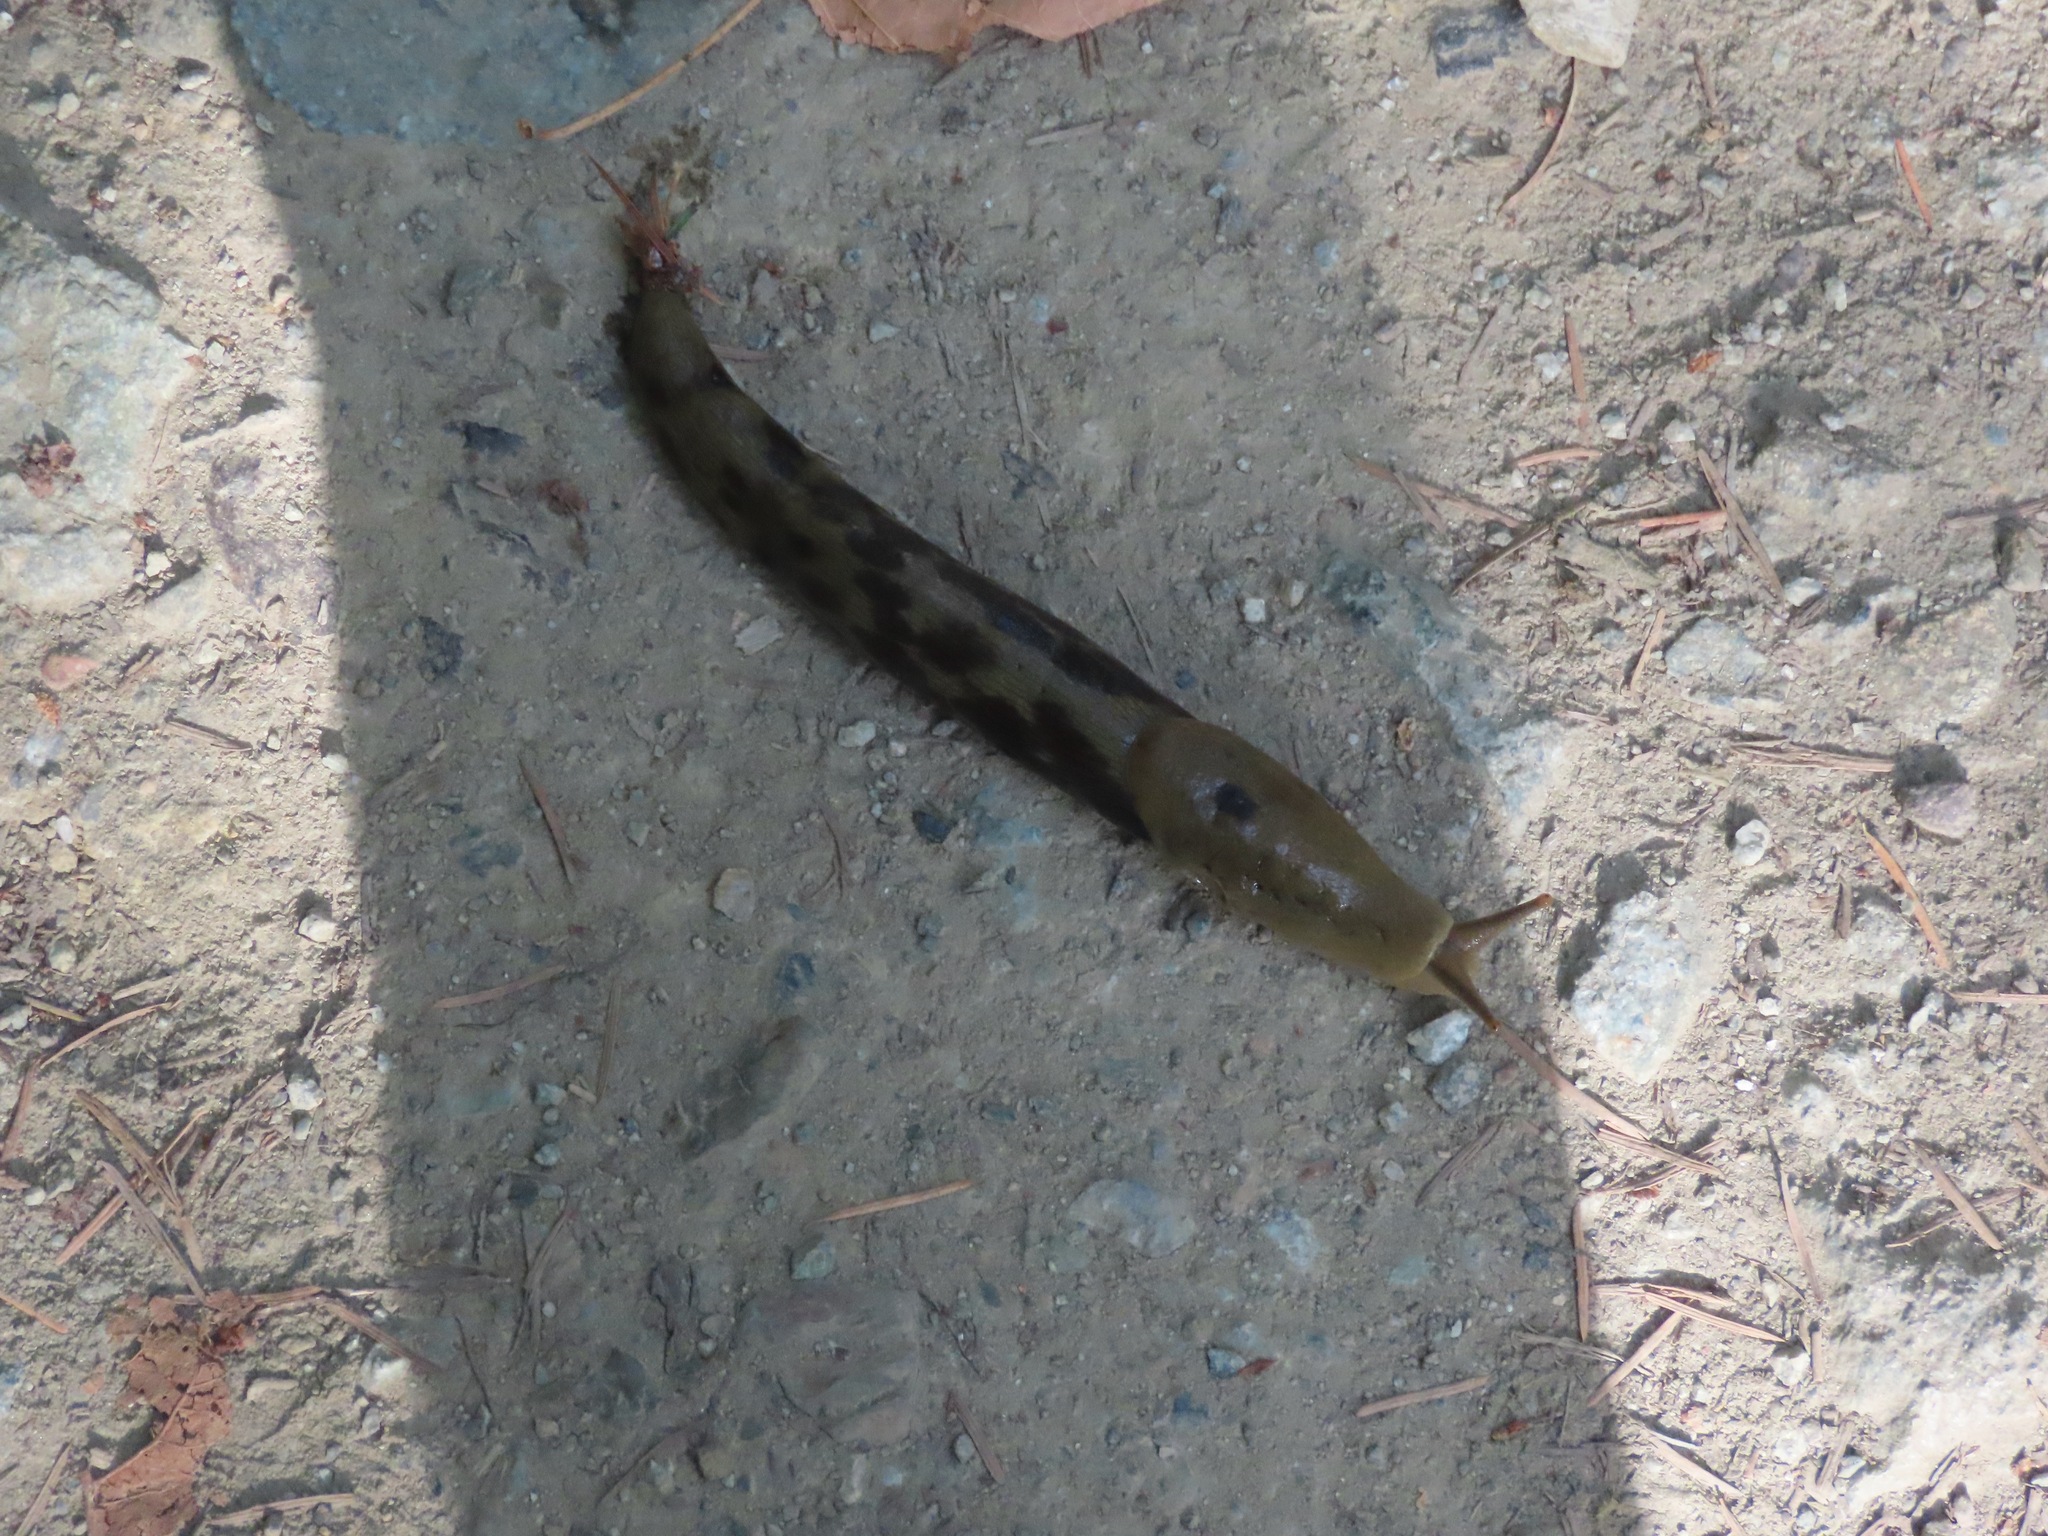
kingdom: Animalia
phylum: Mollusca
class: Gastropoda
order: Stylommatophora
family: Ariolimacidae
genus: Ariolimax
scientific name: Ariolimax columbianus
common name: Pacific banana slug
